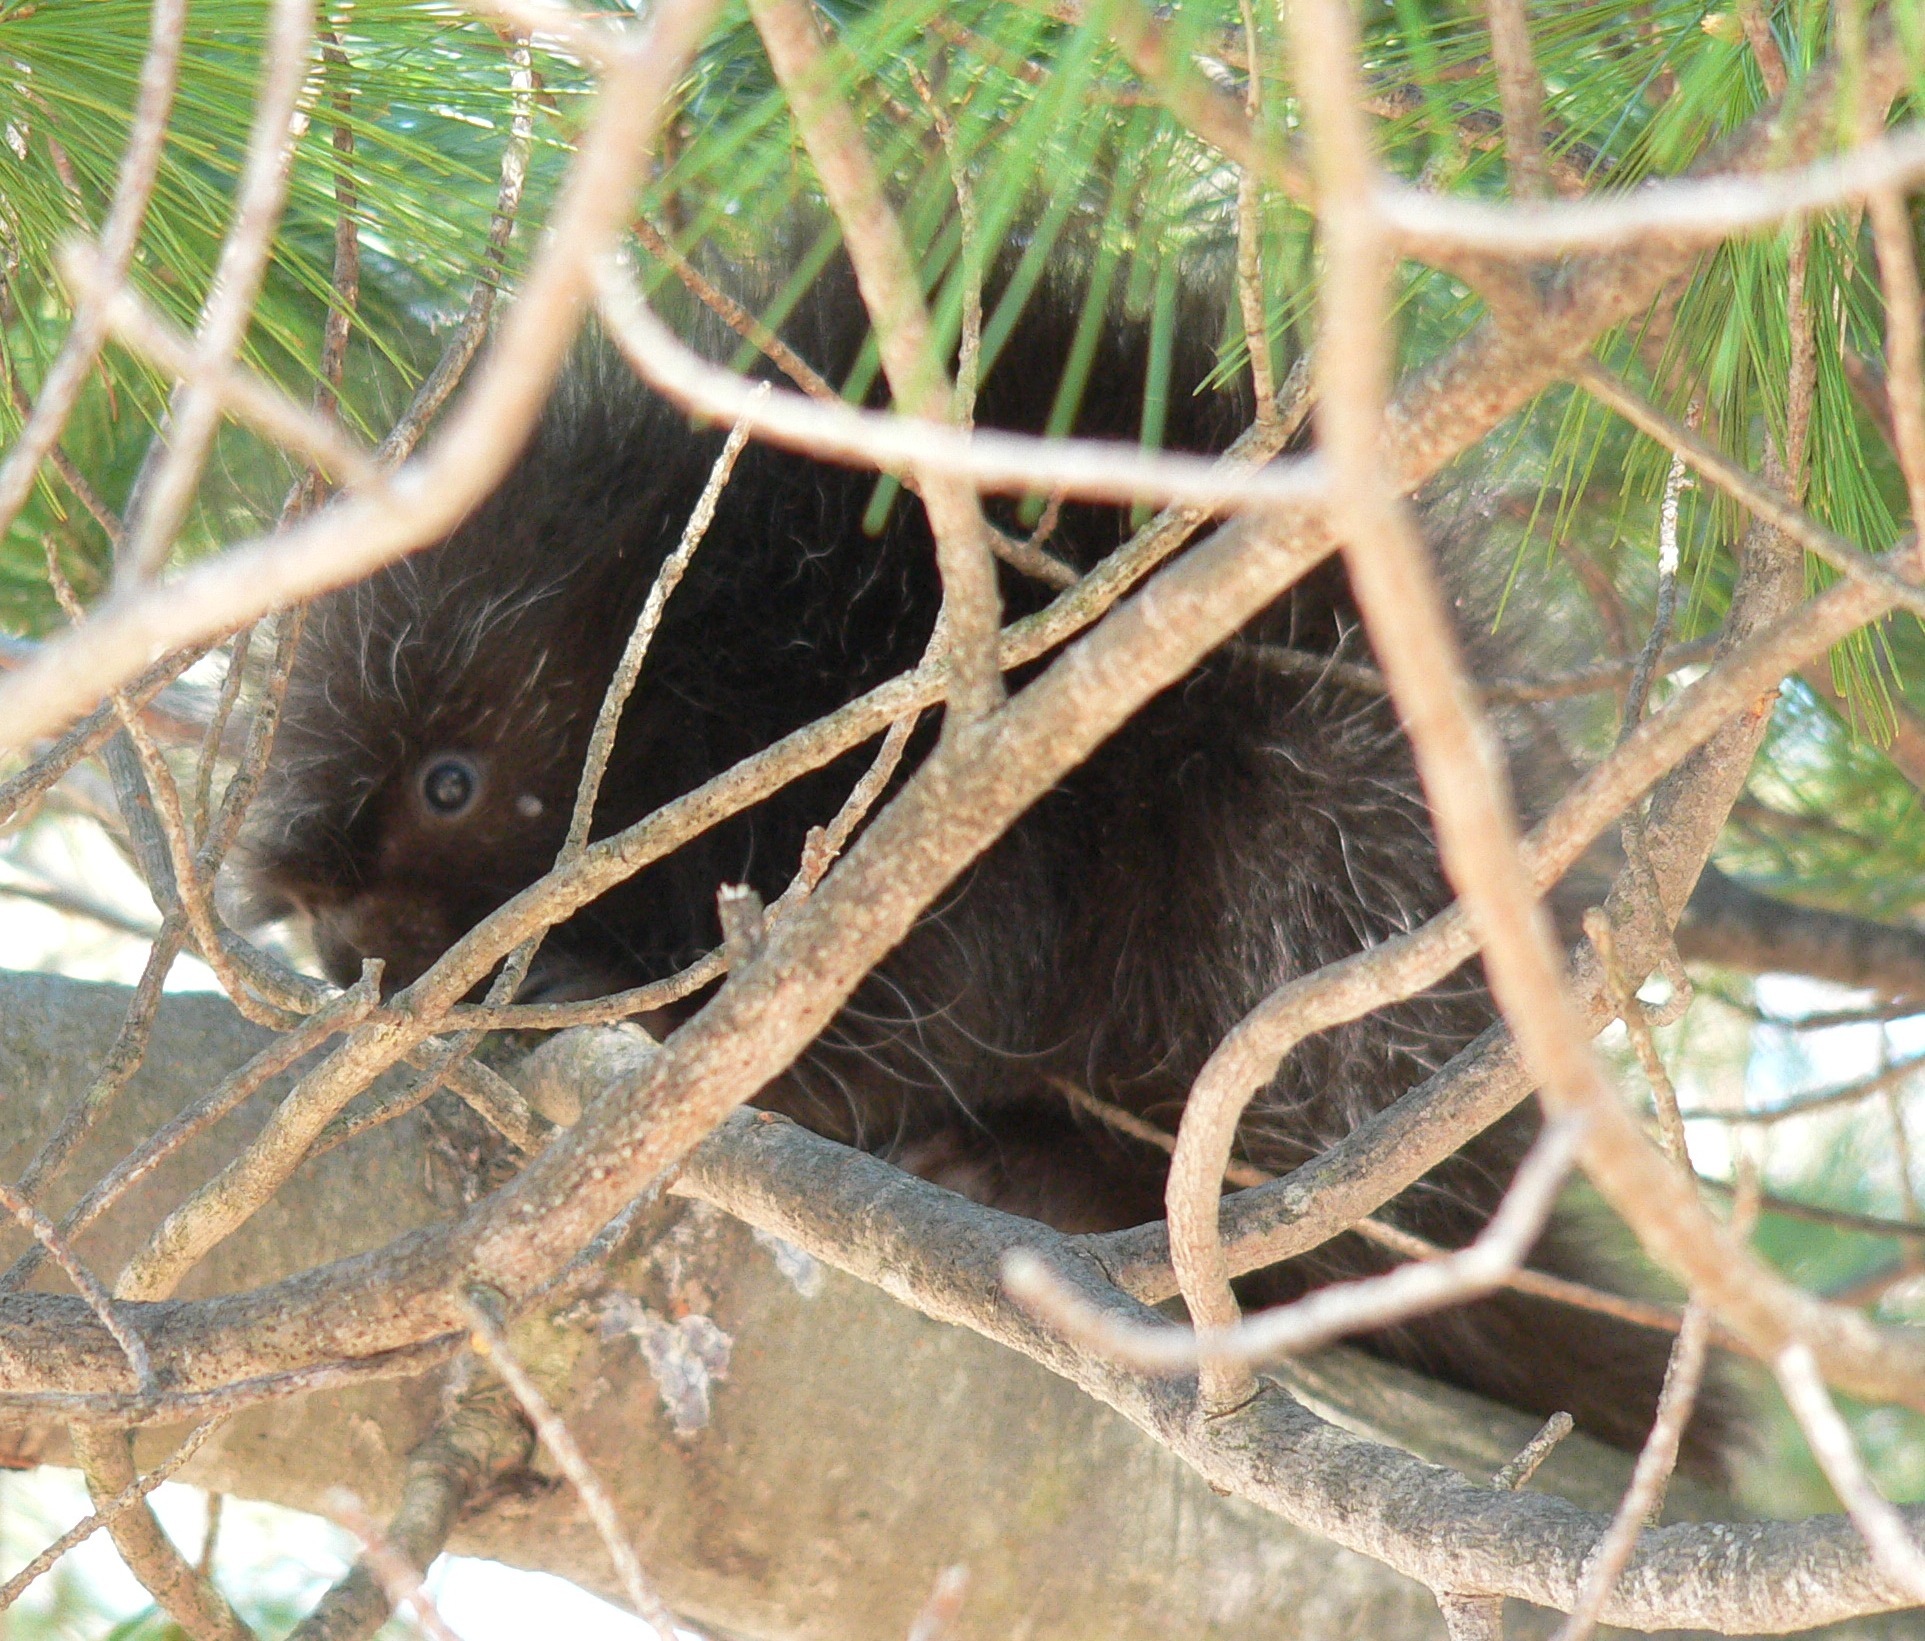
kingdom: Animalia
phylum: Chordata
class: Mammalia
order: Rodentia
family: Erethizontidae
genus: Erethizon
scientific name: Erethizon dorsatus
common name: North american porcupine
